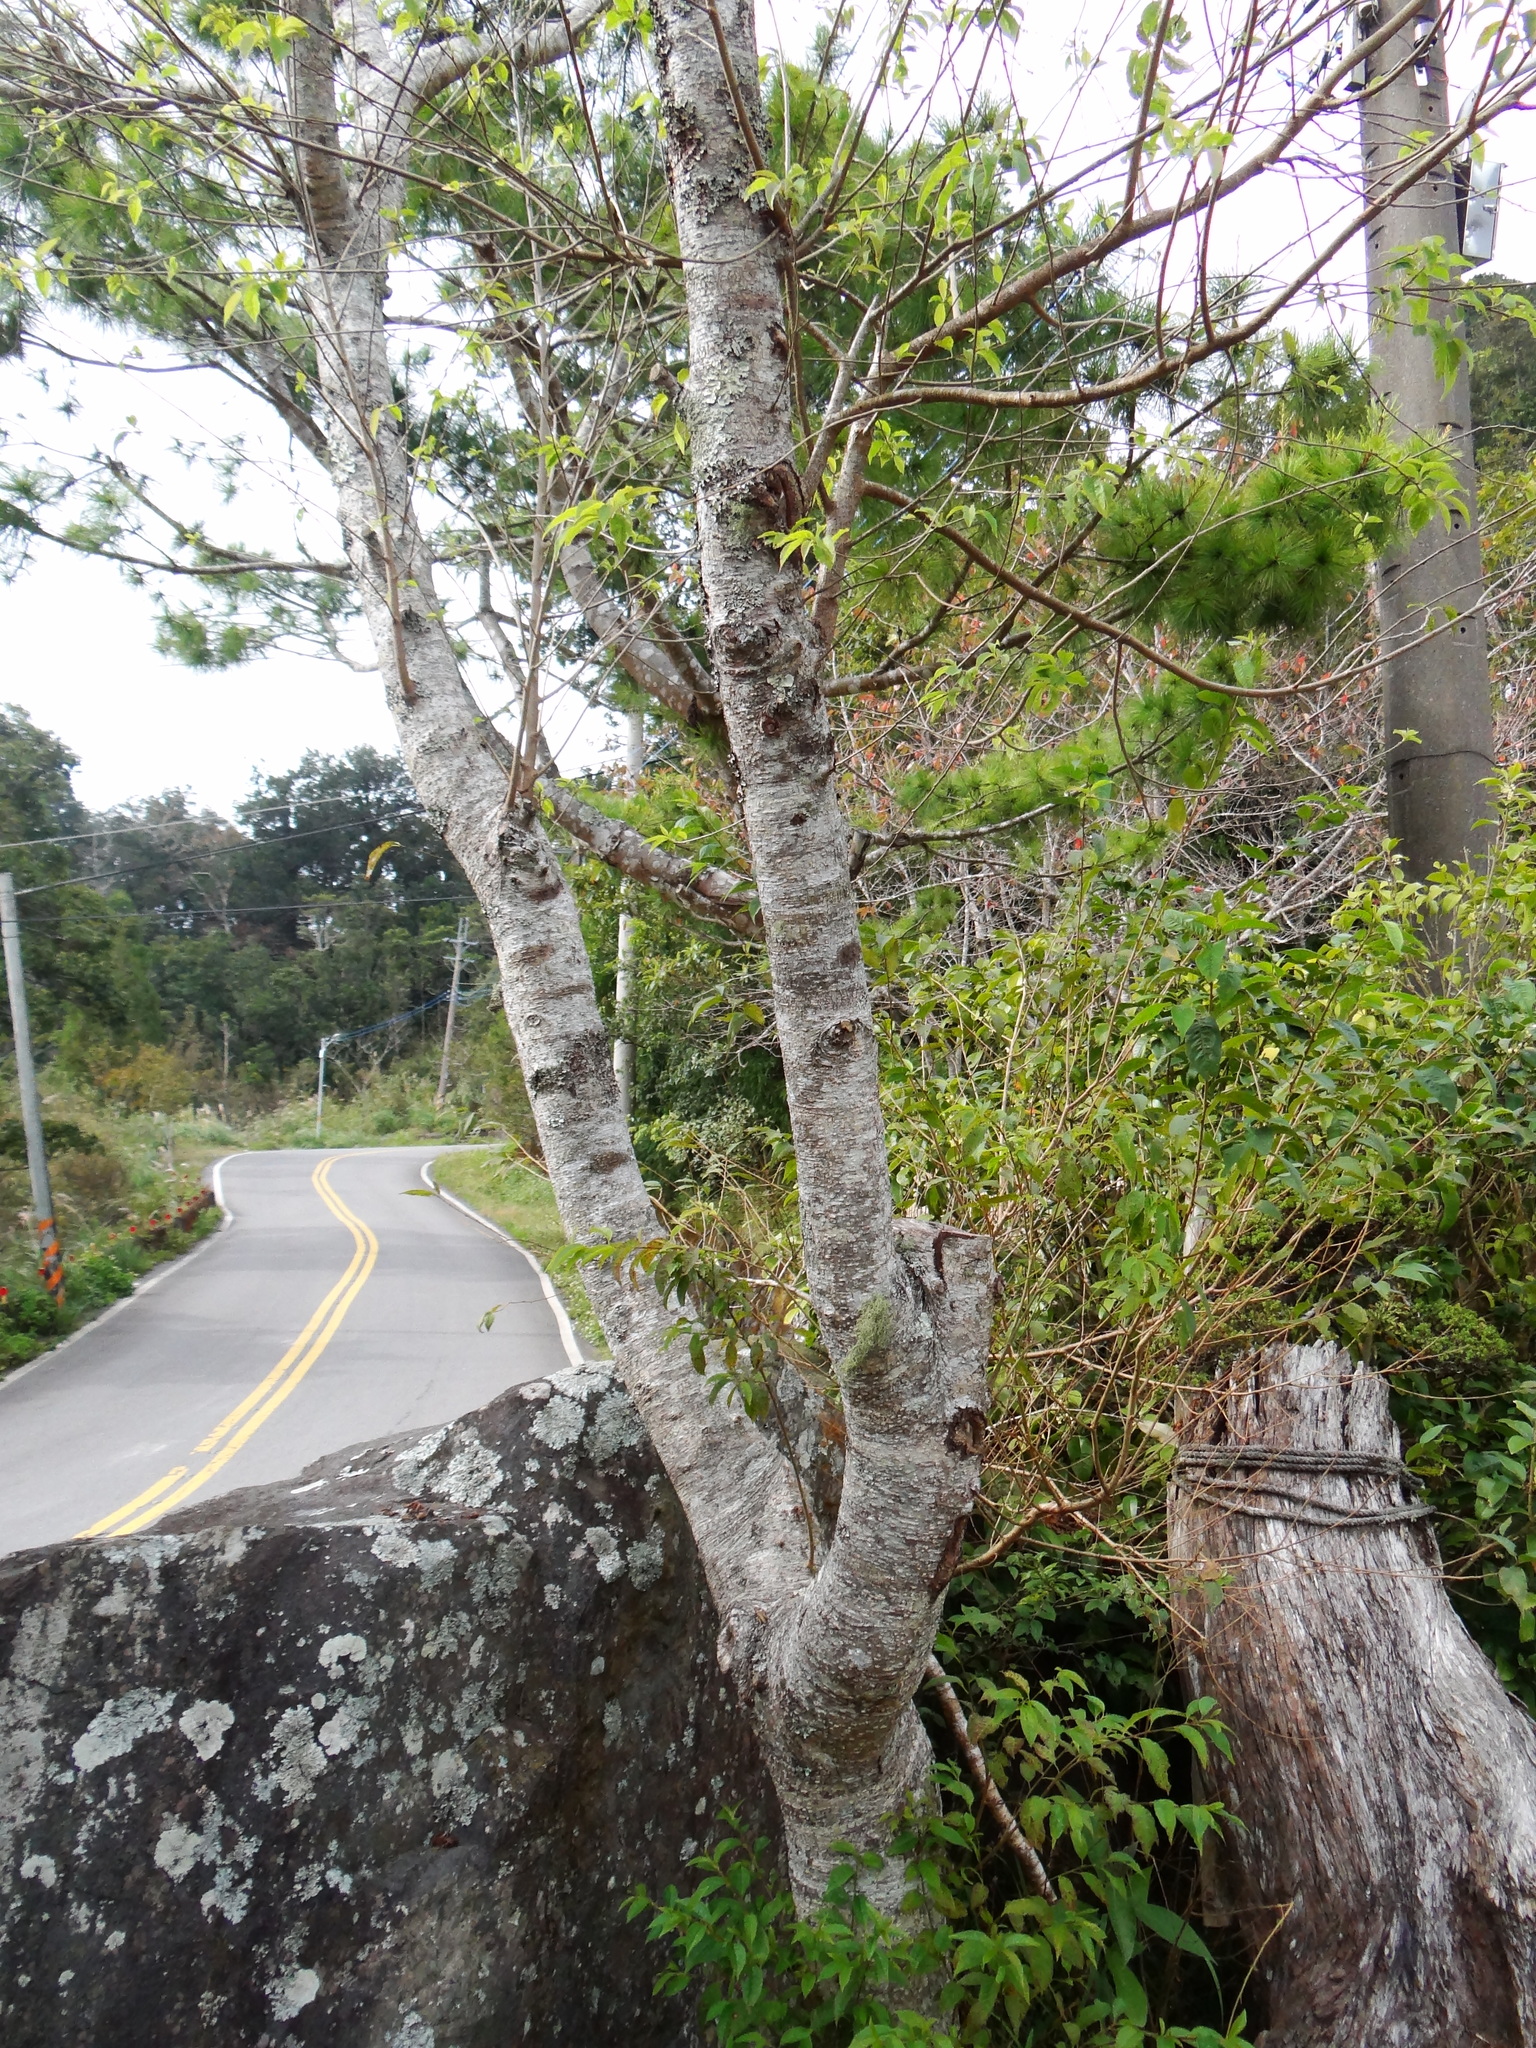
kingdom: Plantae
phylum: Tracheophyta
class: Magnoliopsida
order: Rosales
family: Rosaceae
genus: Prunus
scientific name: Prunus buergeriana
